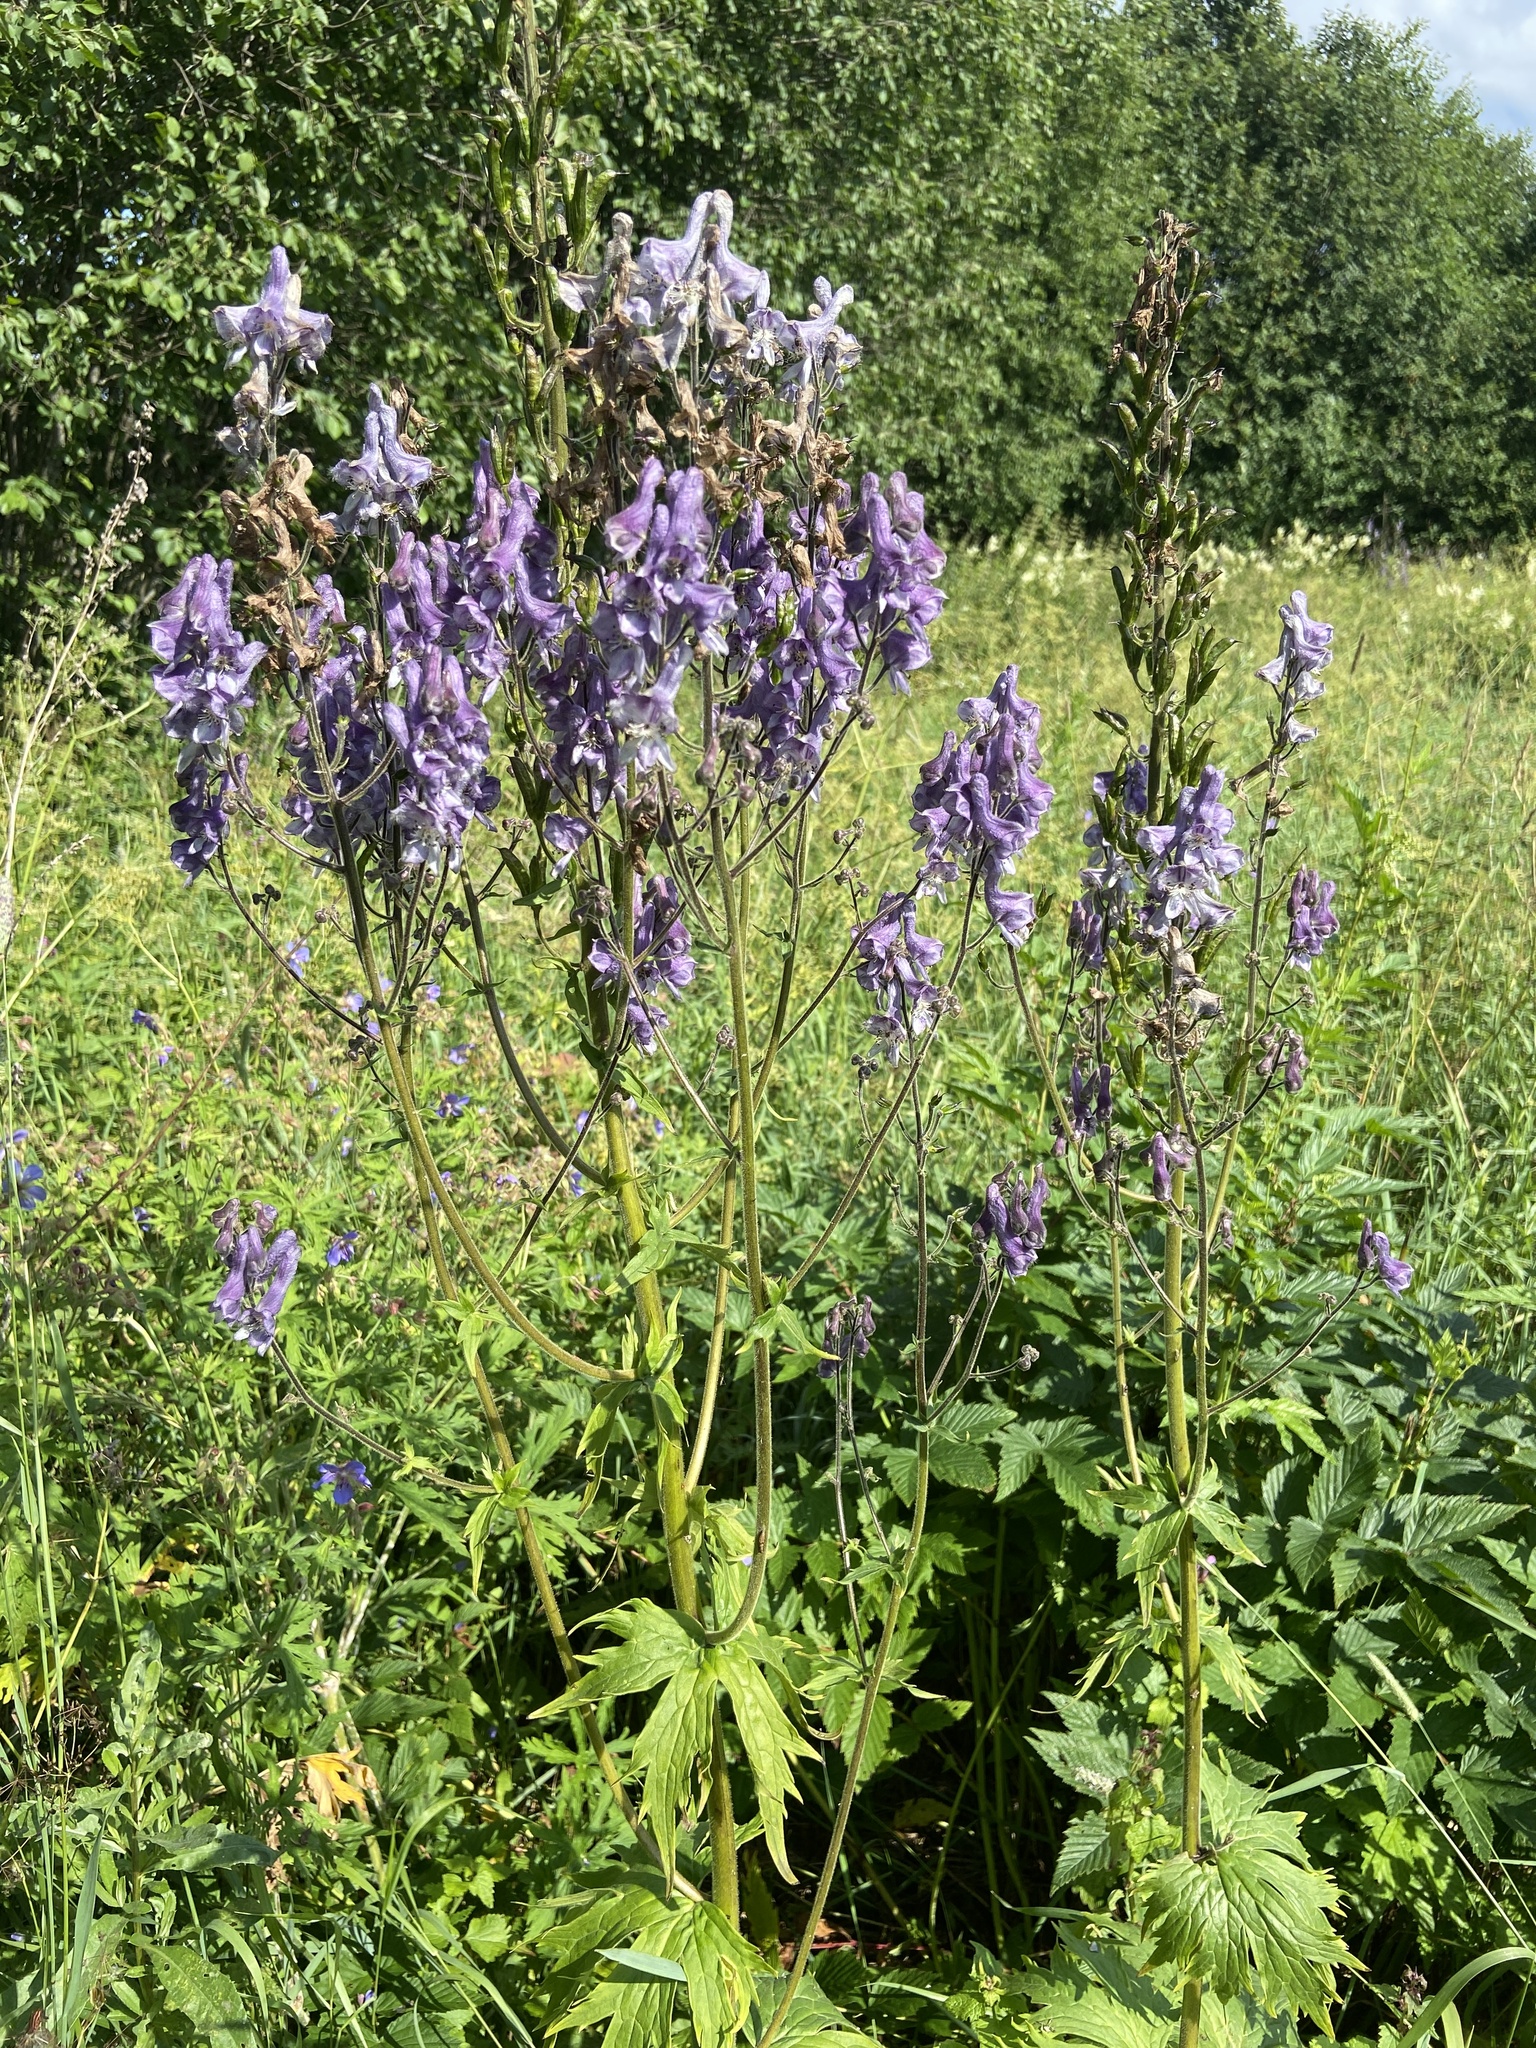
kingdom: Plantae
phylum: Tracheophyta
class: Magnoliopsida
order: Ranunculales
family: Ranunculaceae
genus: Aconitum
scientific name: Aconitum septentrionale
